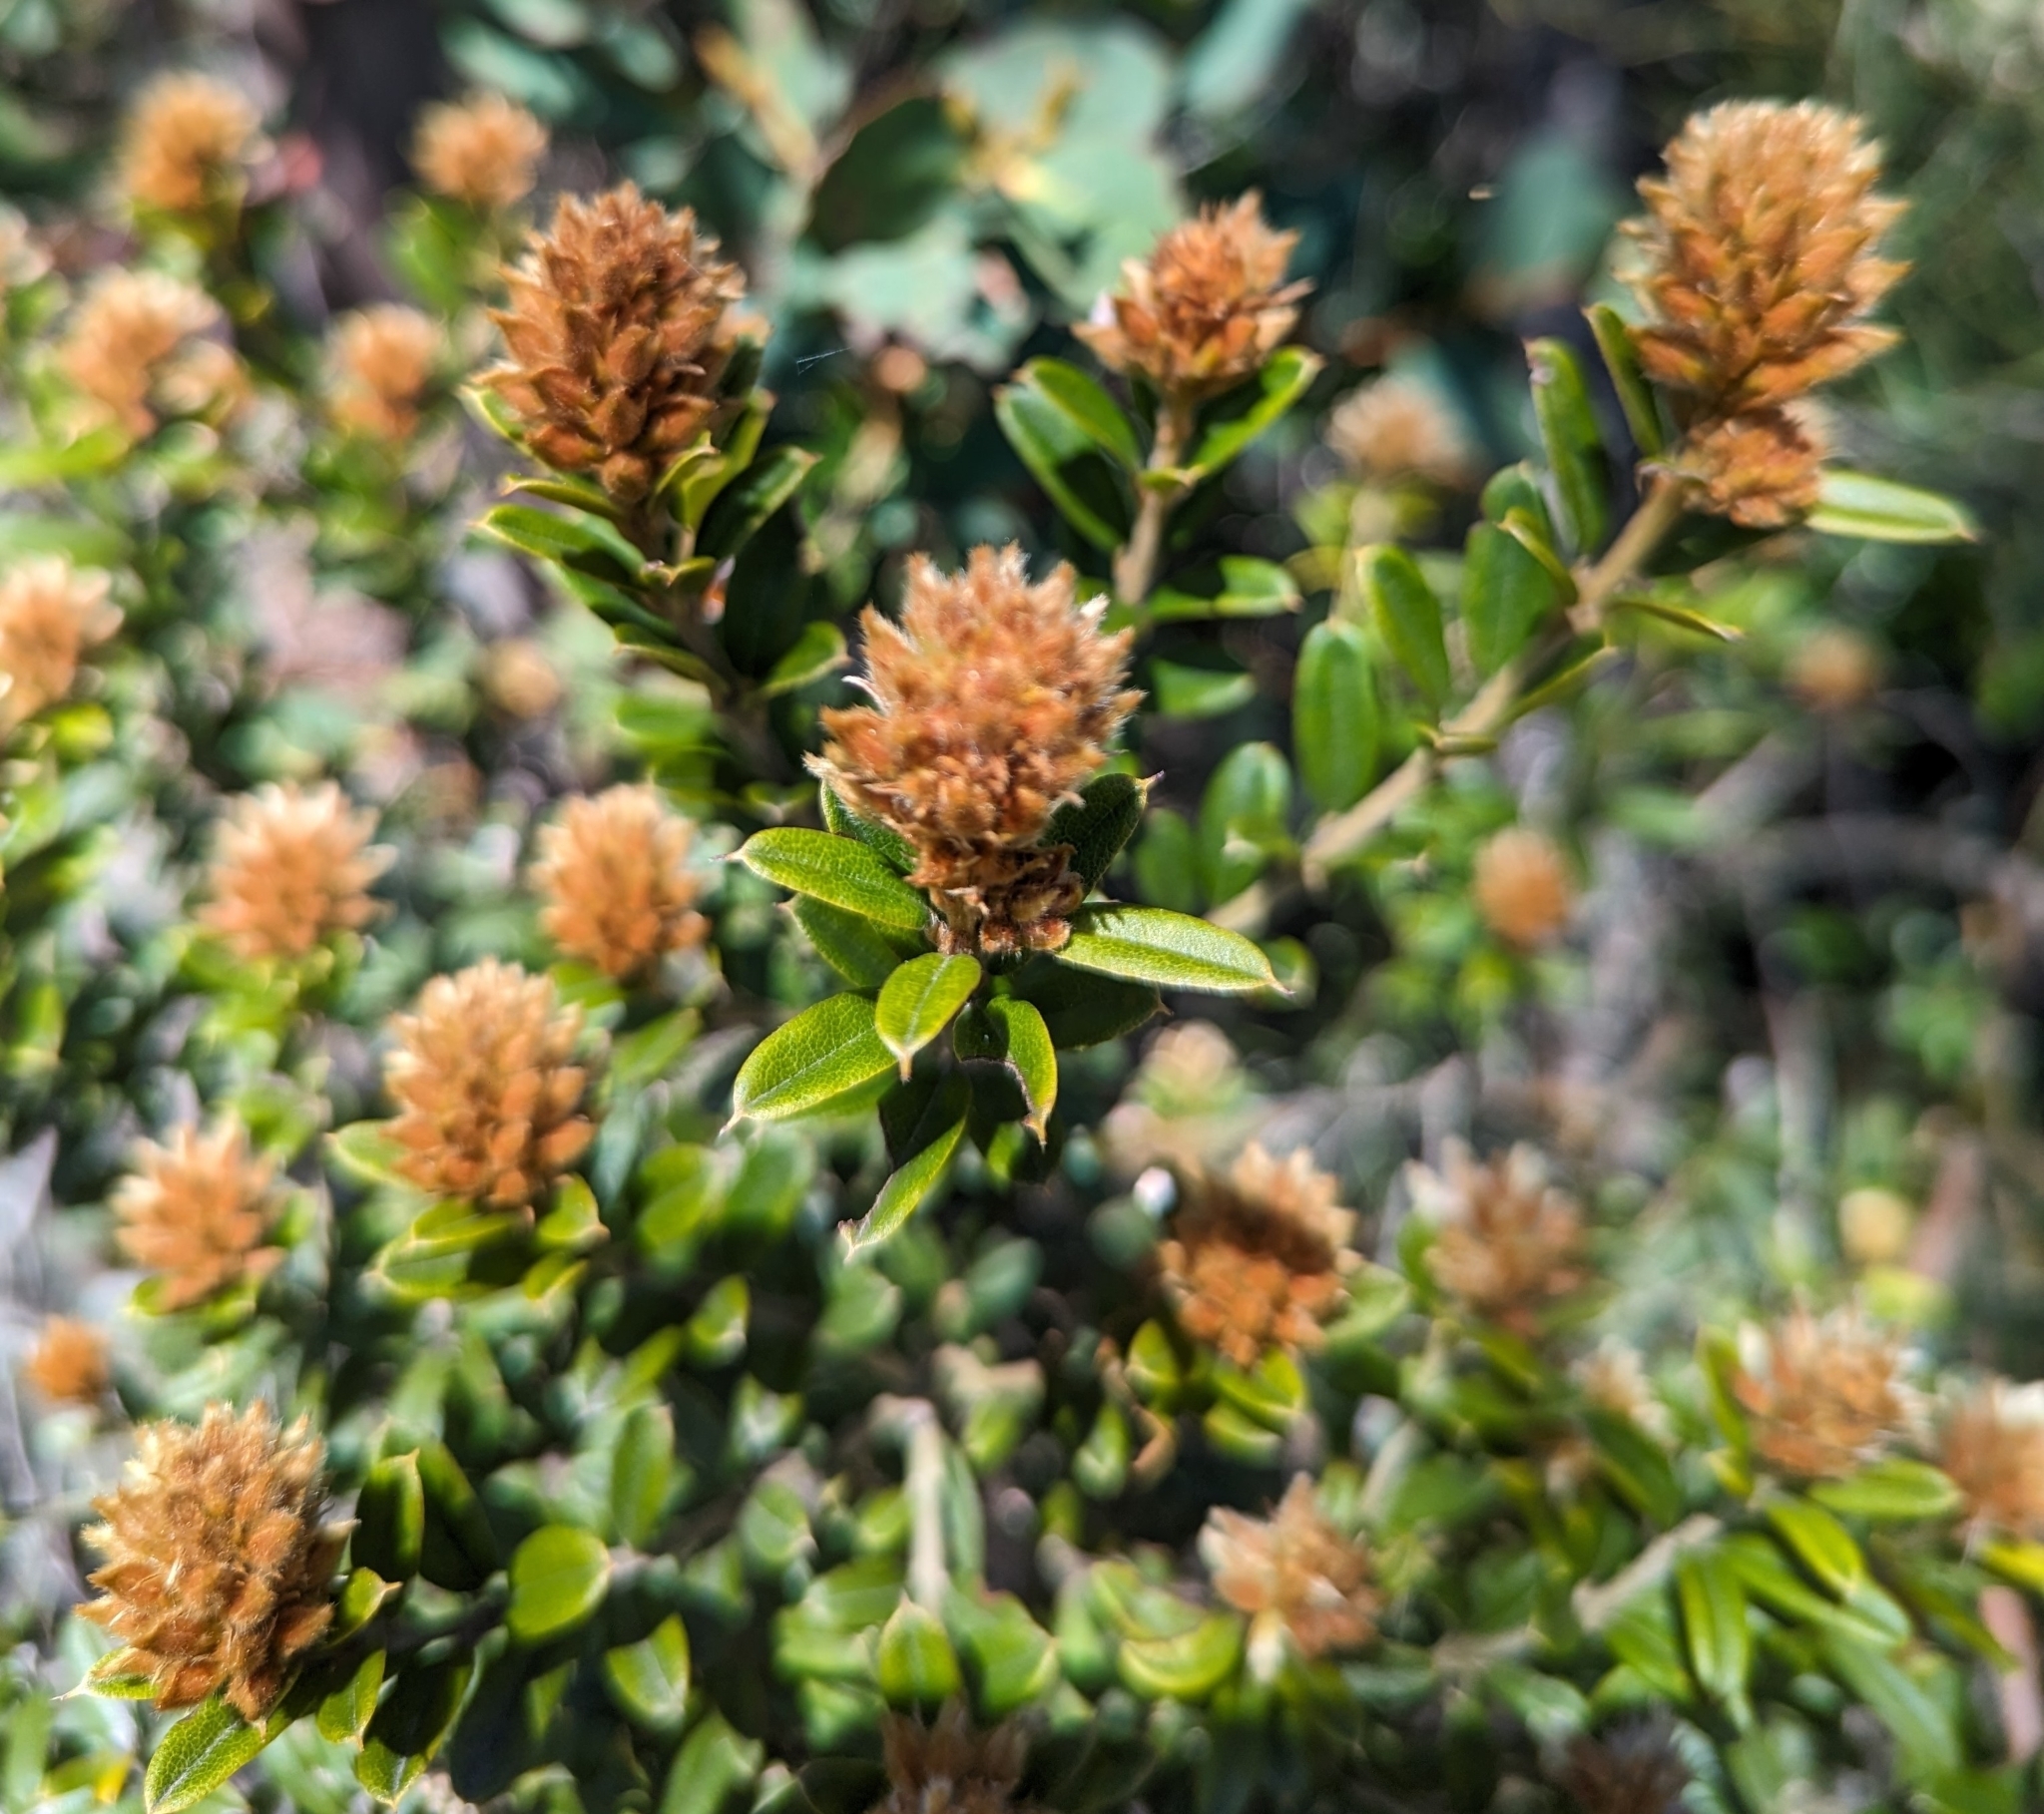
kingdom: Plantae
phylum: Tracheophyta
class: Magnoliopsida
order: Fabales
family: Fabaceae
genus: Oxylobium
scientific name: Oxylobium ellipticum
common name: Golden shaggy-pea
